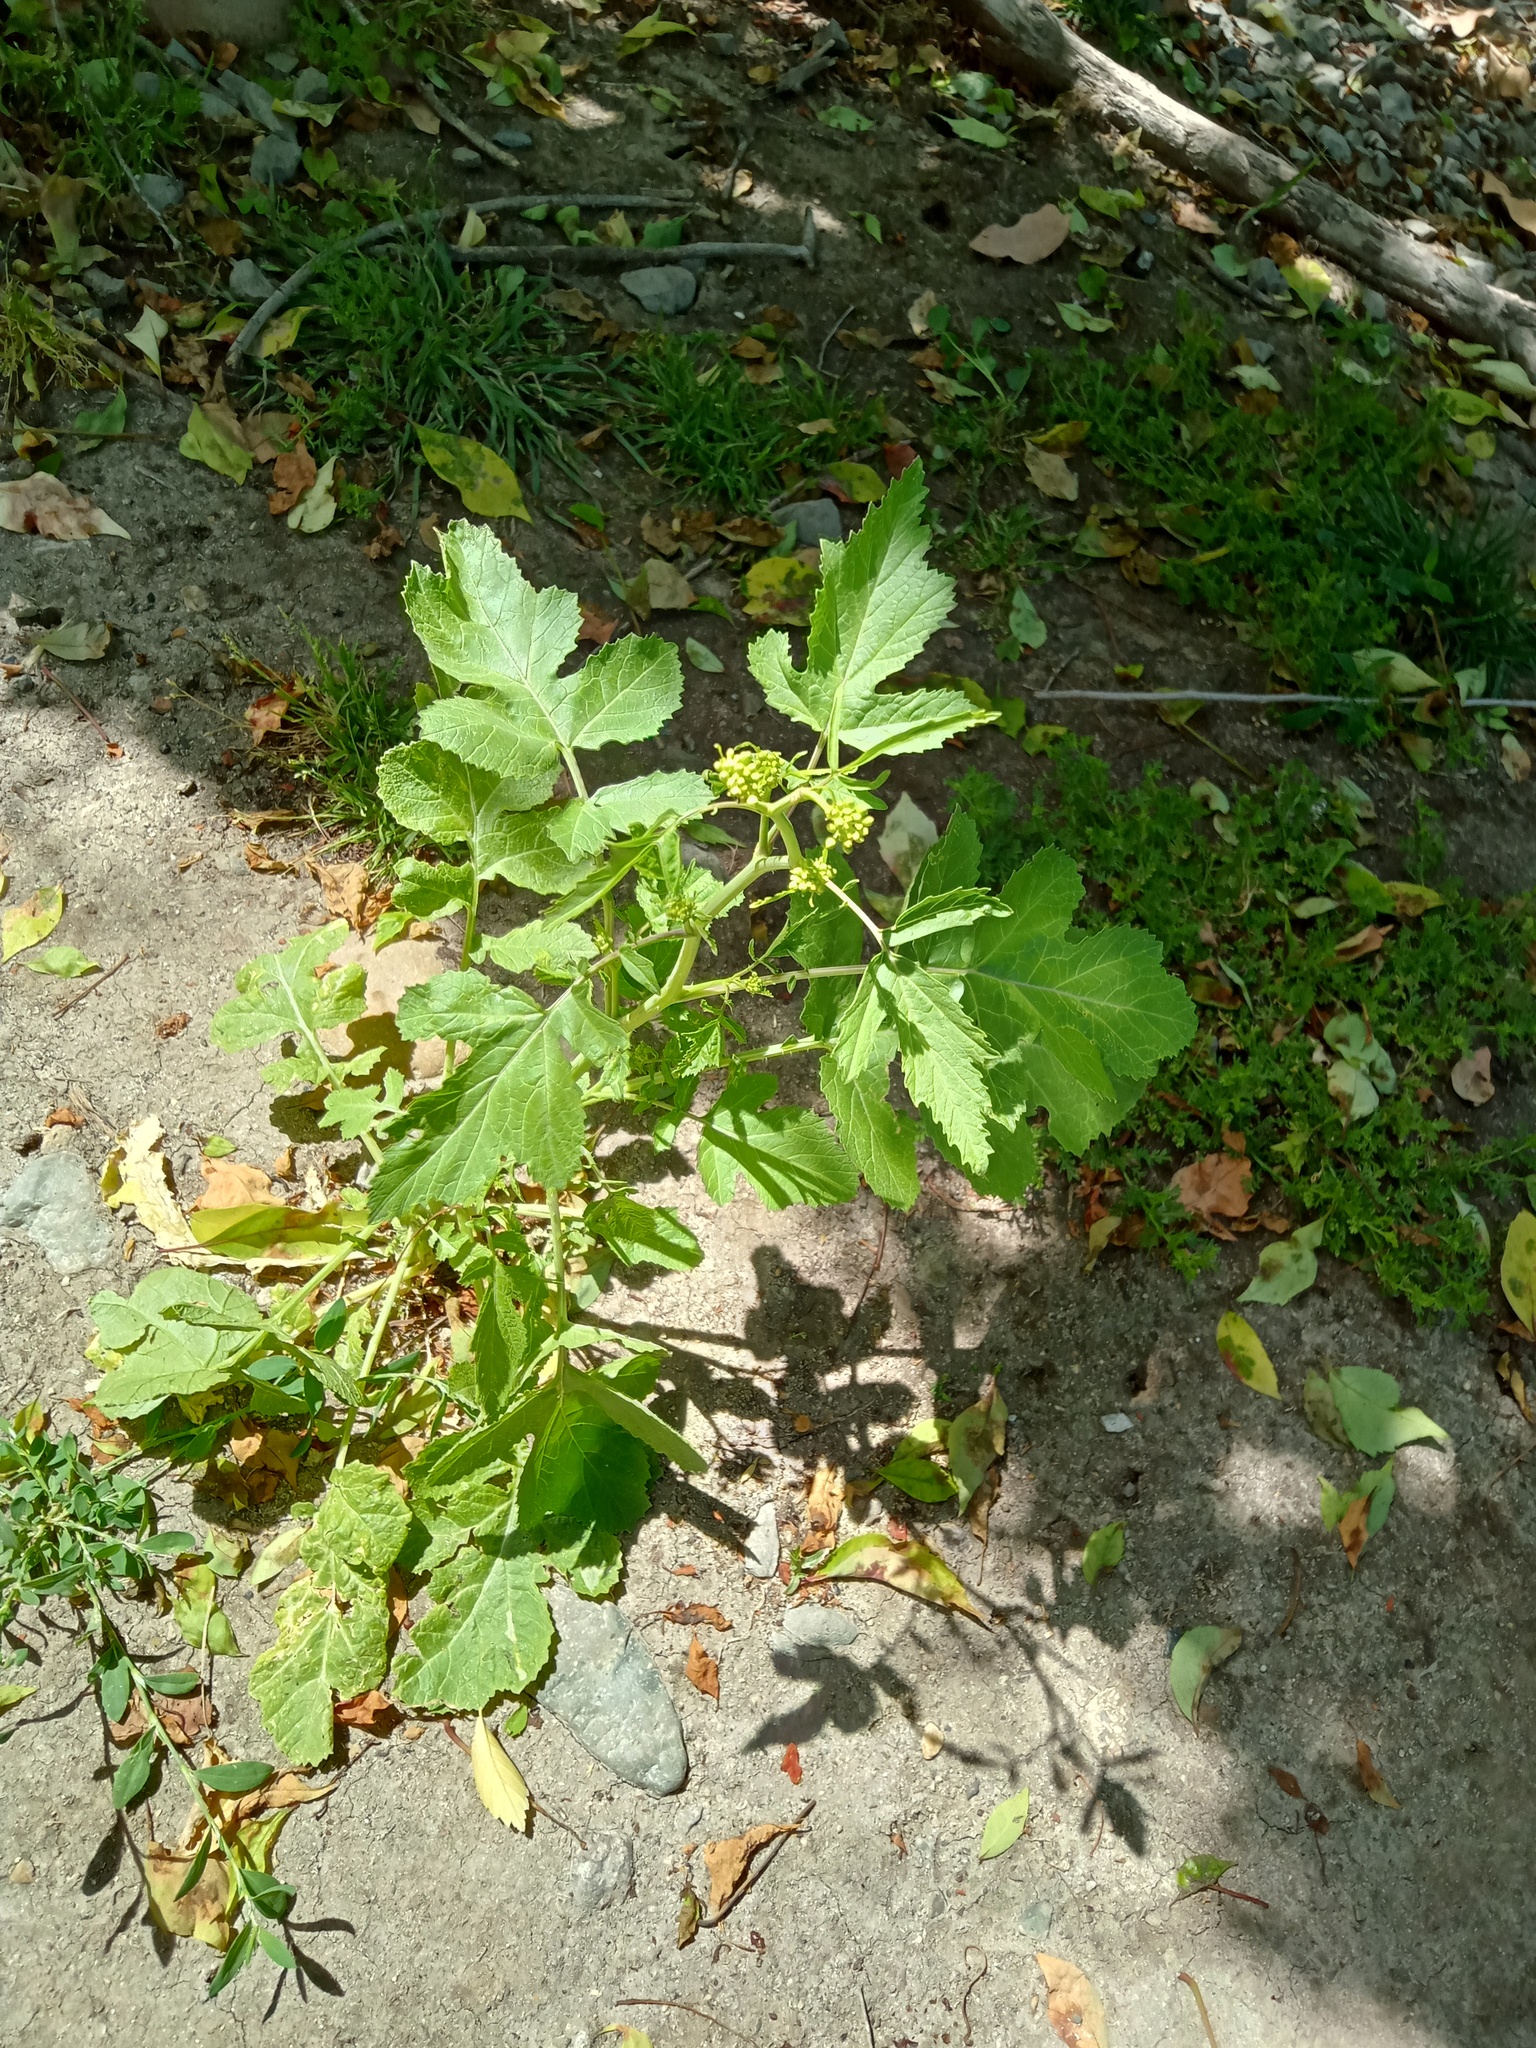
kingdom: Plantae
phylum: Tracheophyta
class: Magnoliopsida
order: Brassicales
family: Brassicaceae
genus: Sinapis
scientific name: Sinapis arvensis
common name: Charlock
